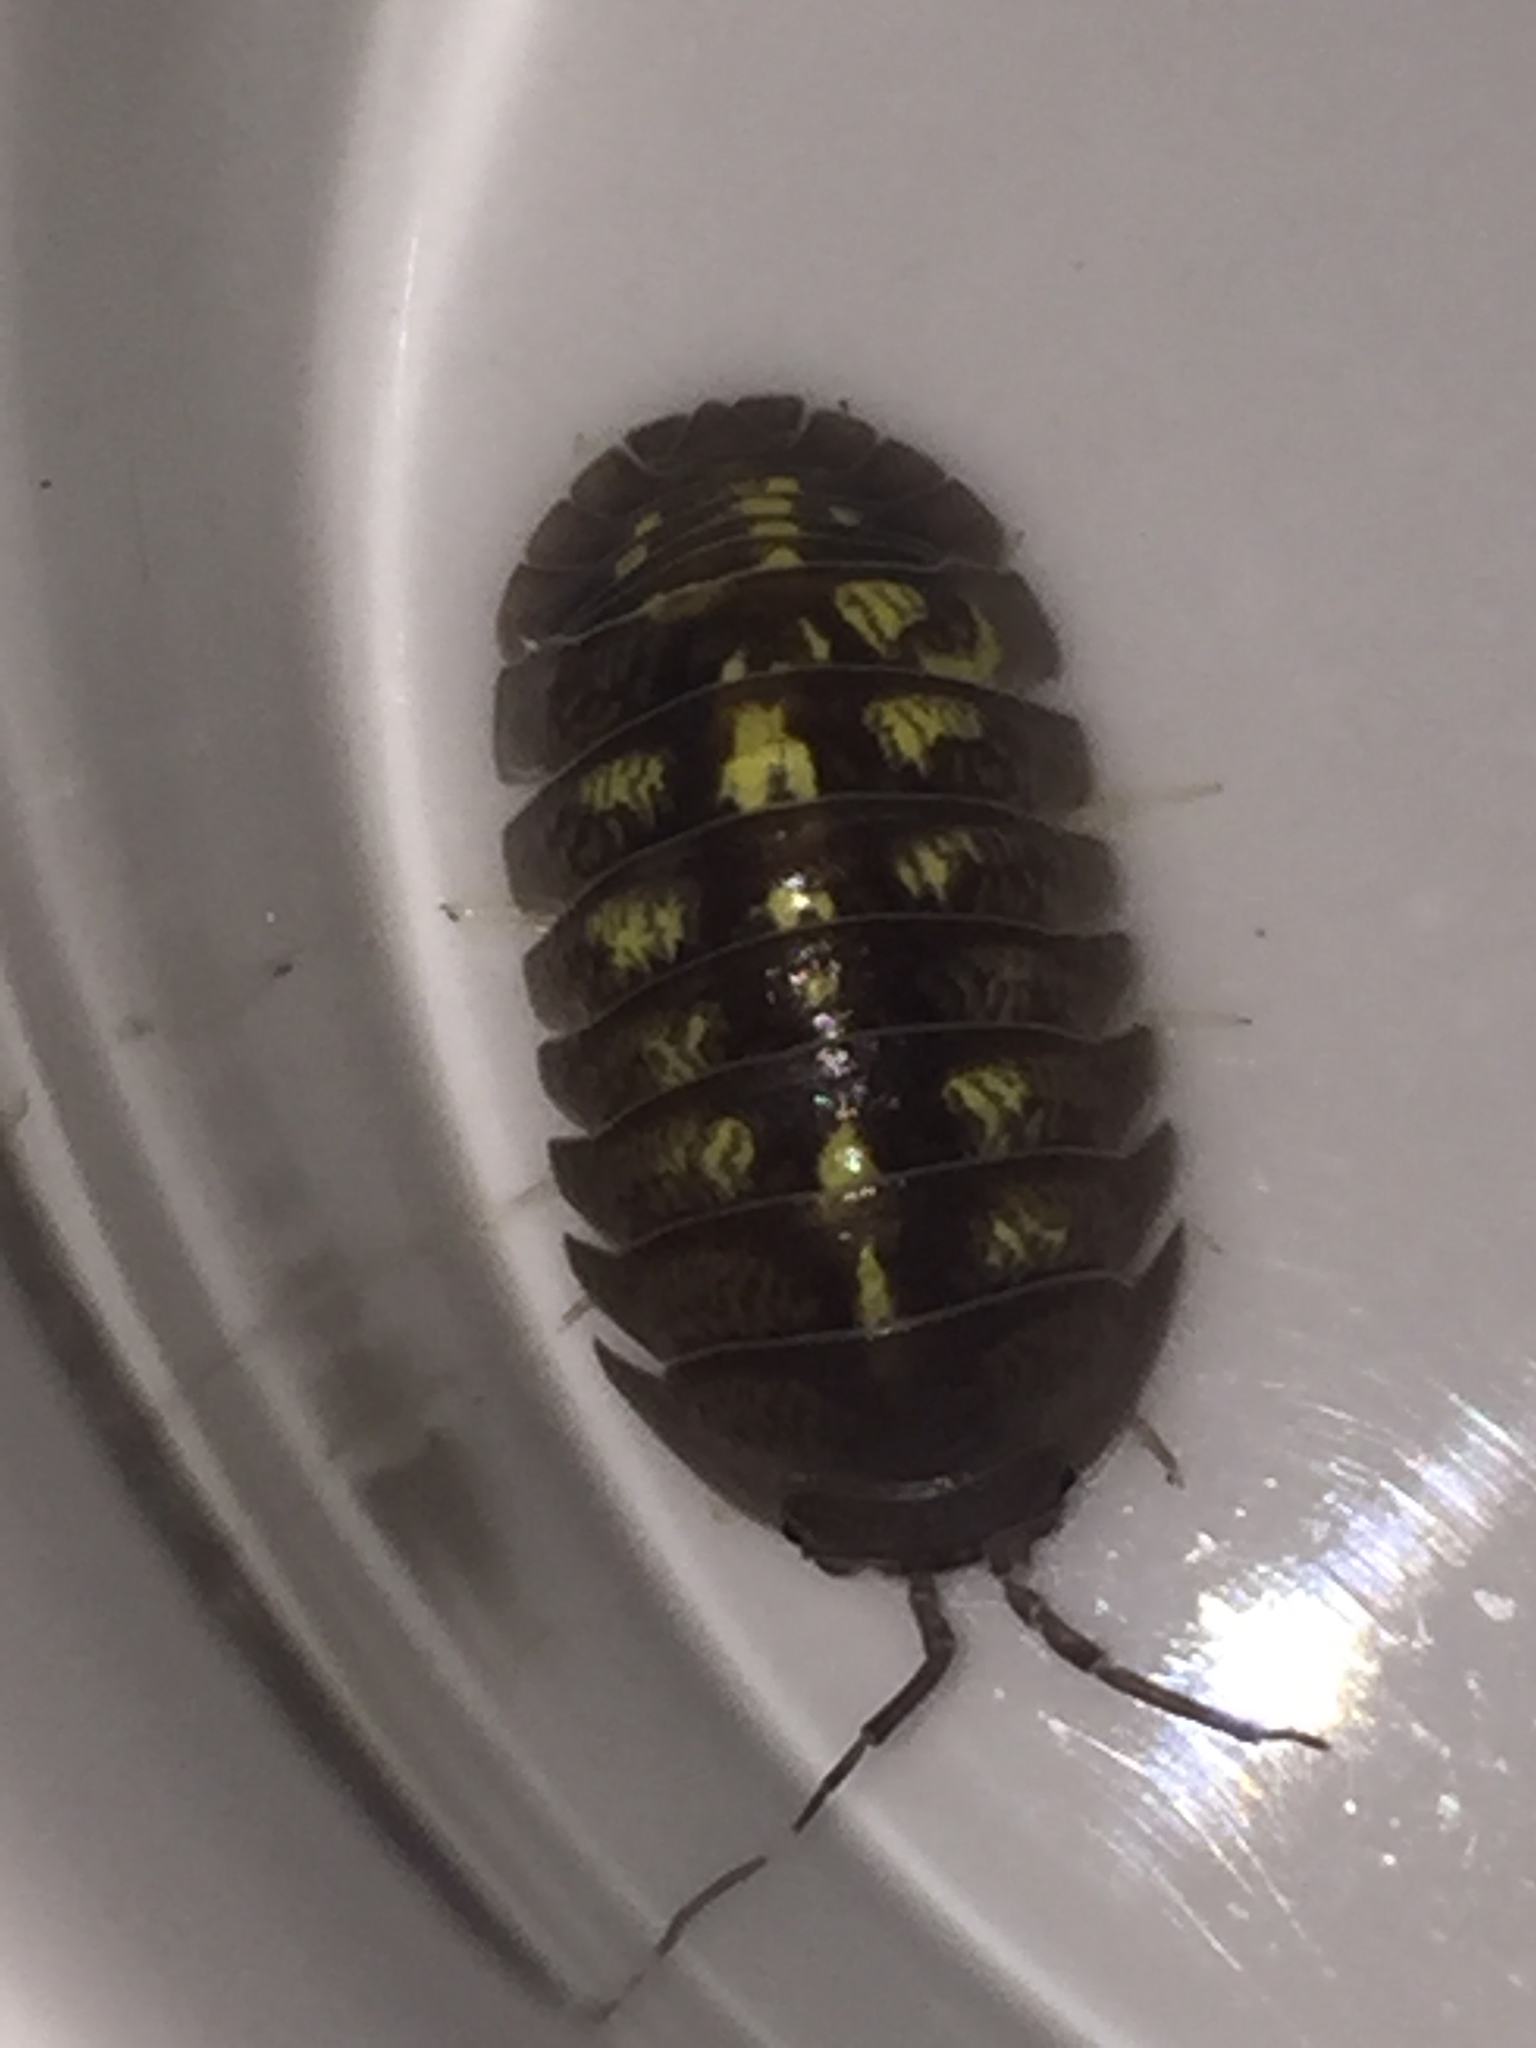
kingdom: Animalia
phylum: Arthropoda
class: Malacostraca
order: Isopoda
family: Armadillidiidae
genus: Armadillidium
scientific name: Armadillidium granulatum
